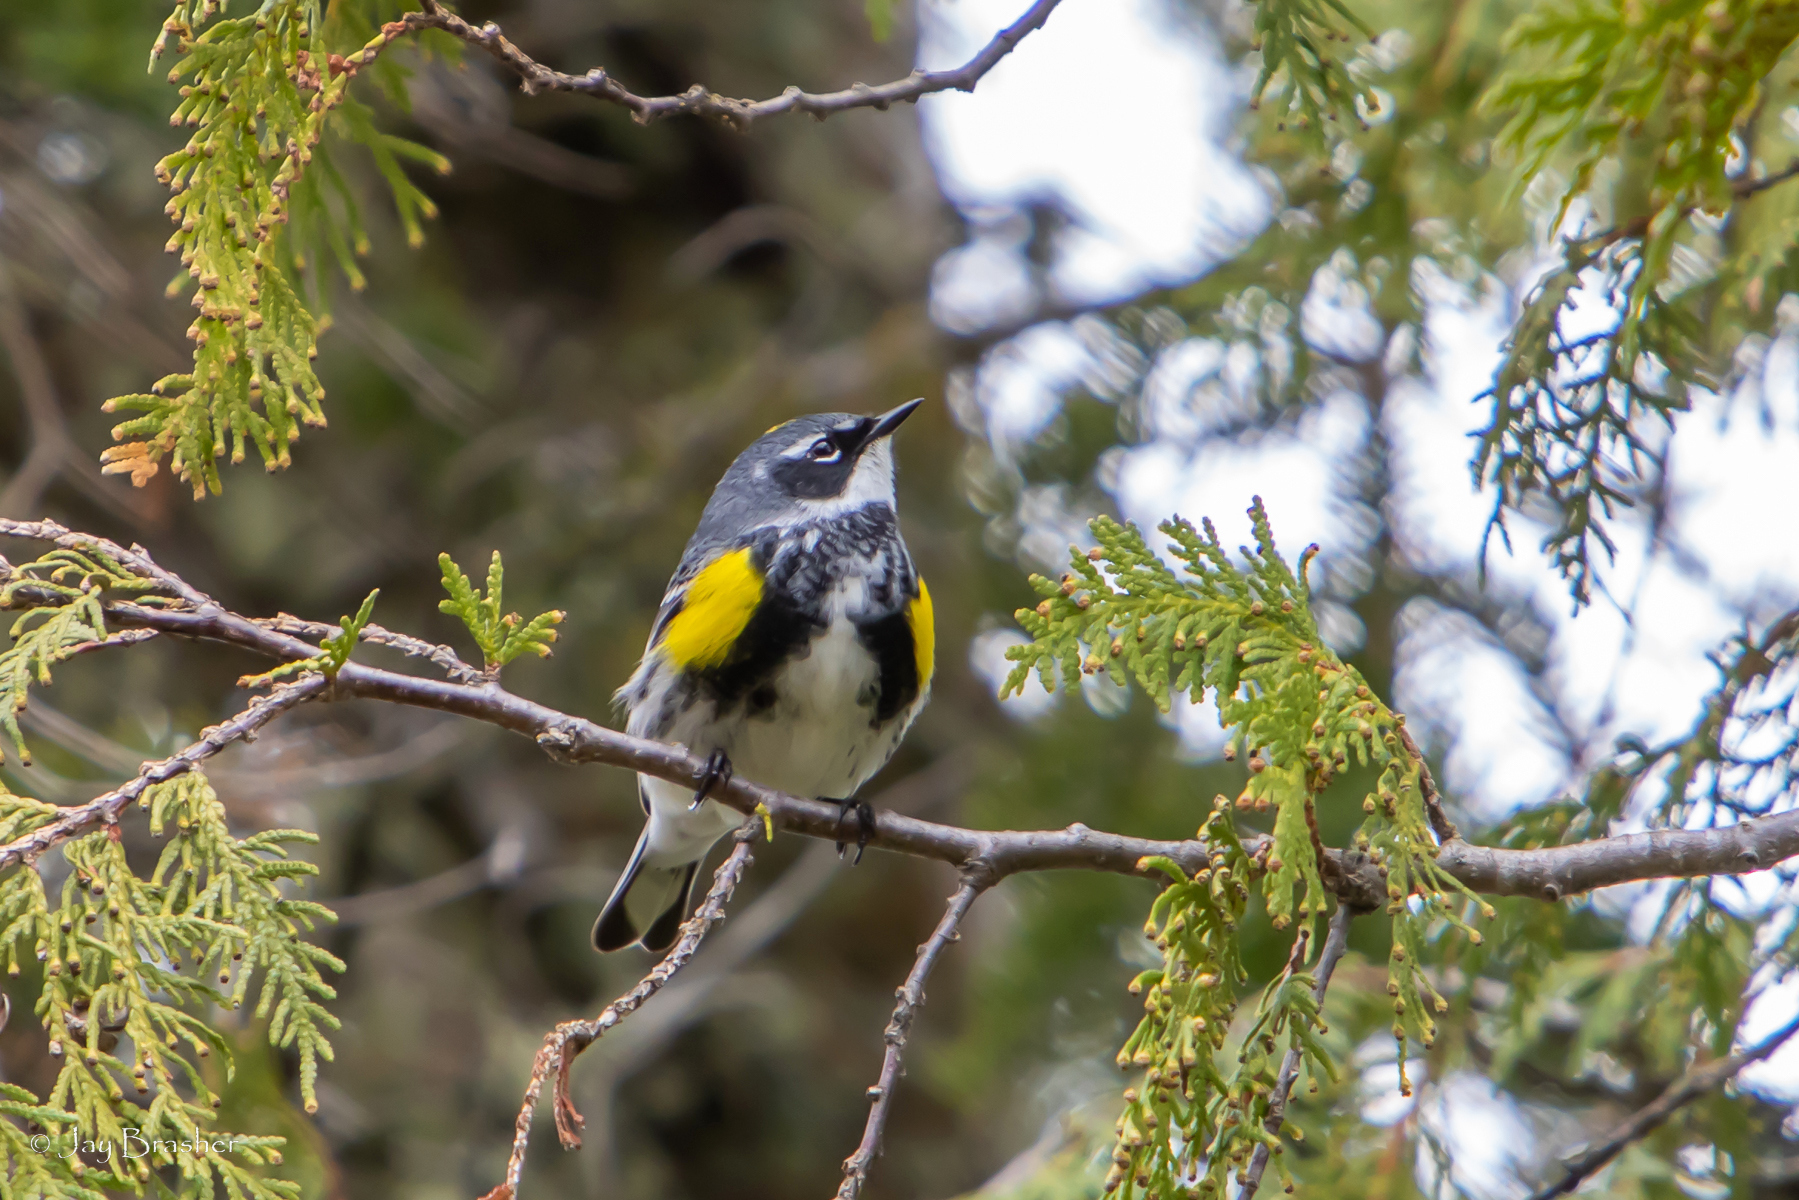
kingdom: Animalia
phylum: Chordata
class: Aves
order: Passeriformes
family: Parulidae
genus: Setophaga
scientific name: Setophaga coronata
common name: Myrtle warbler
